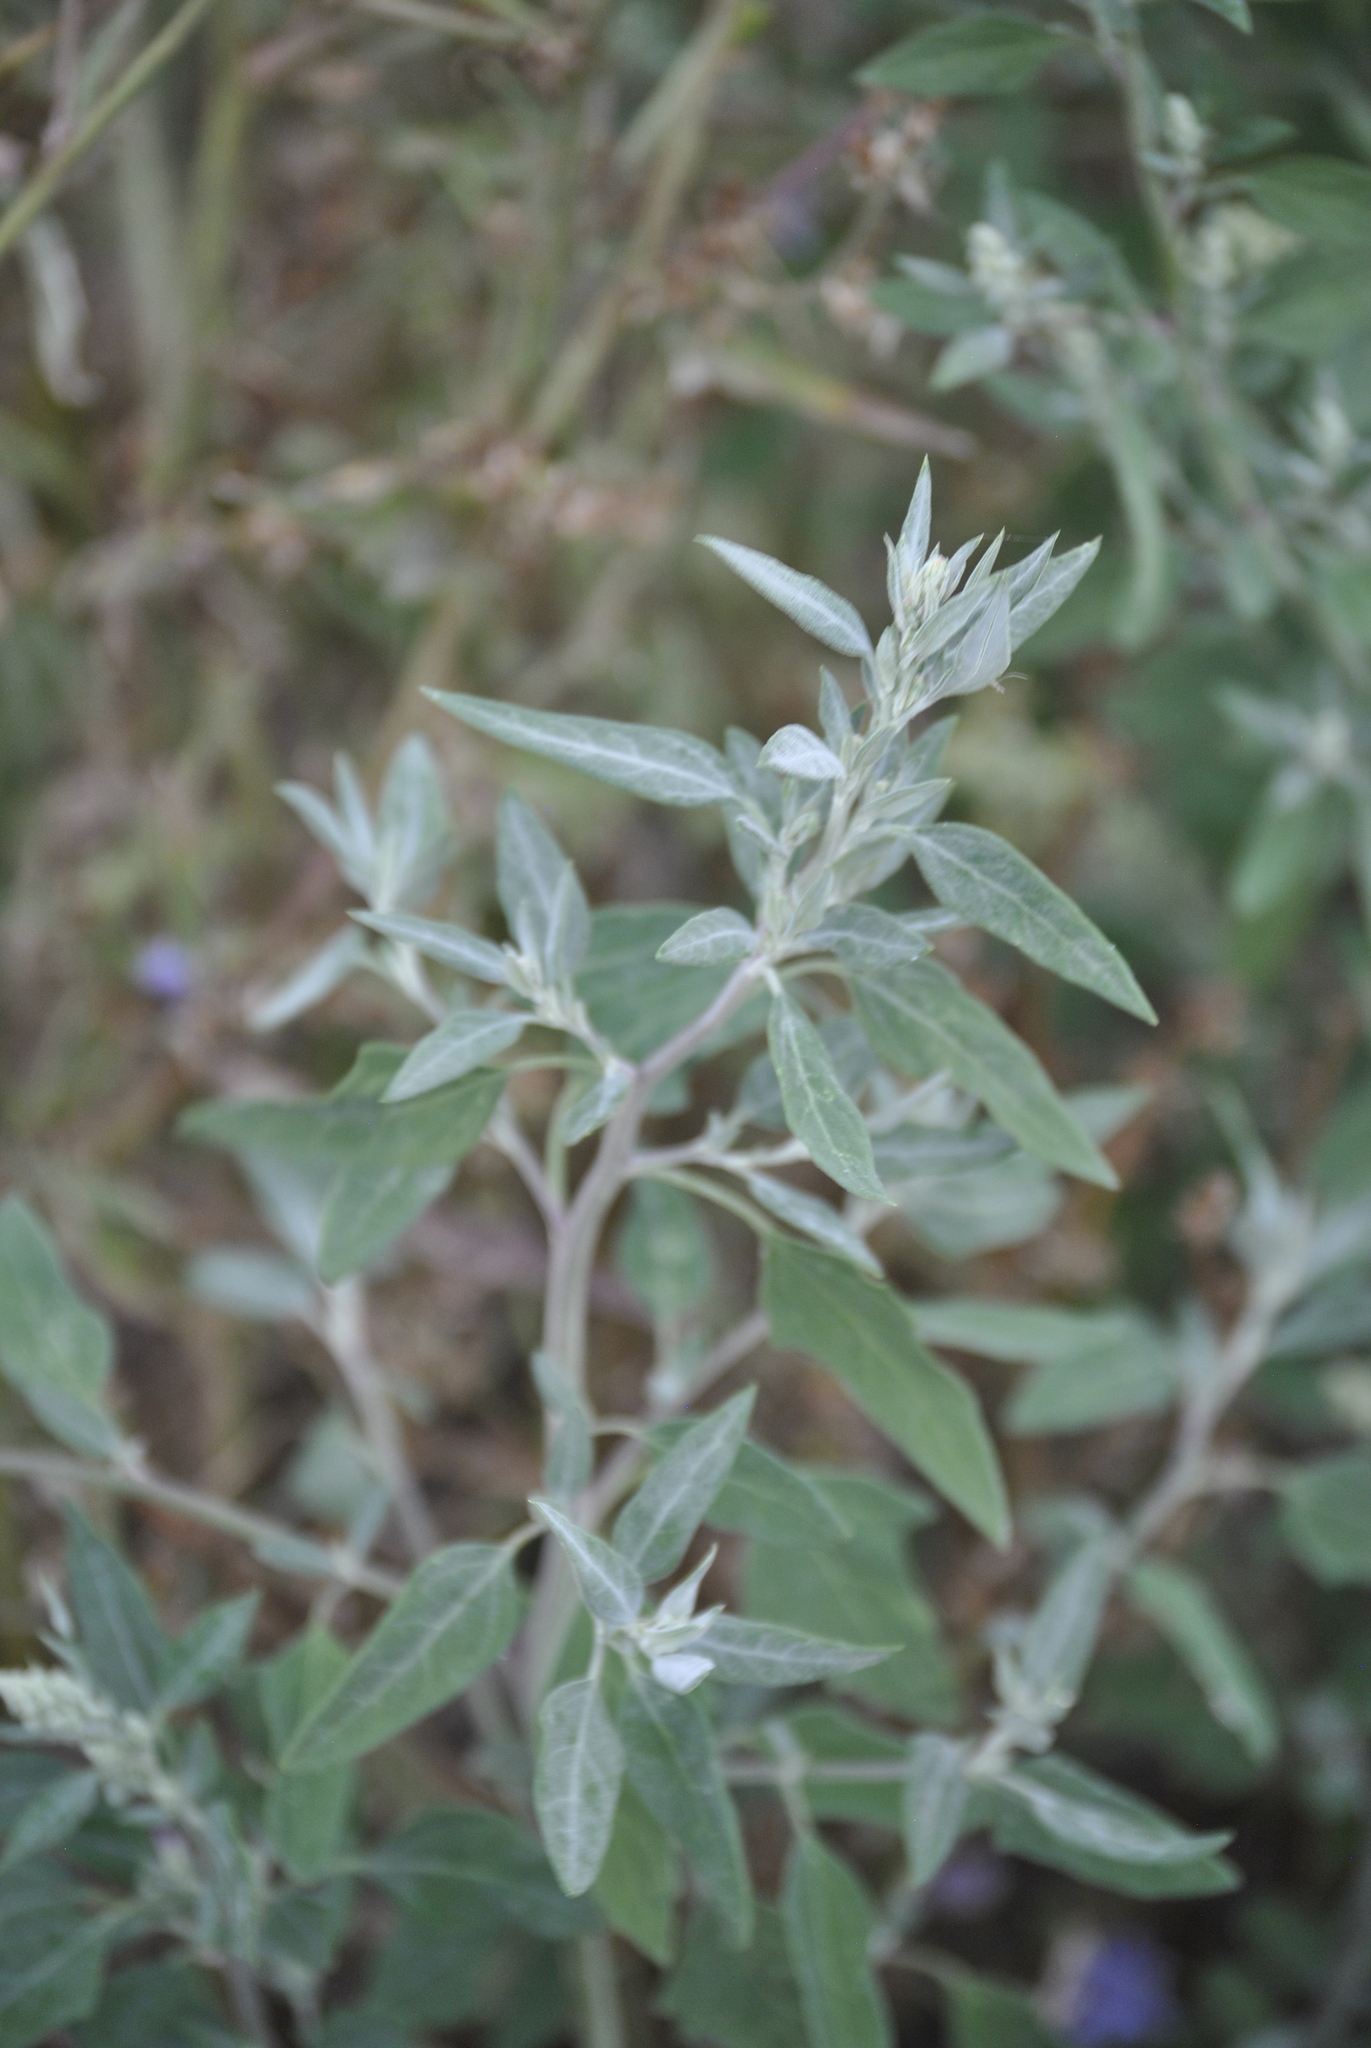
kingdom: Plantae
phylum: Tracheophyta
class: Magnoliopsida
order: Caryophyllales
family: Amaranthaceae
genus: Chenopodium
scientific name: Chenopodium album
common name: Fat-hen
